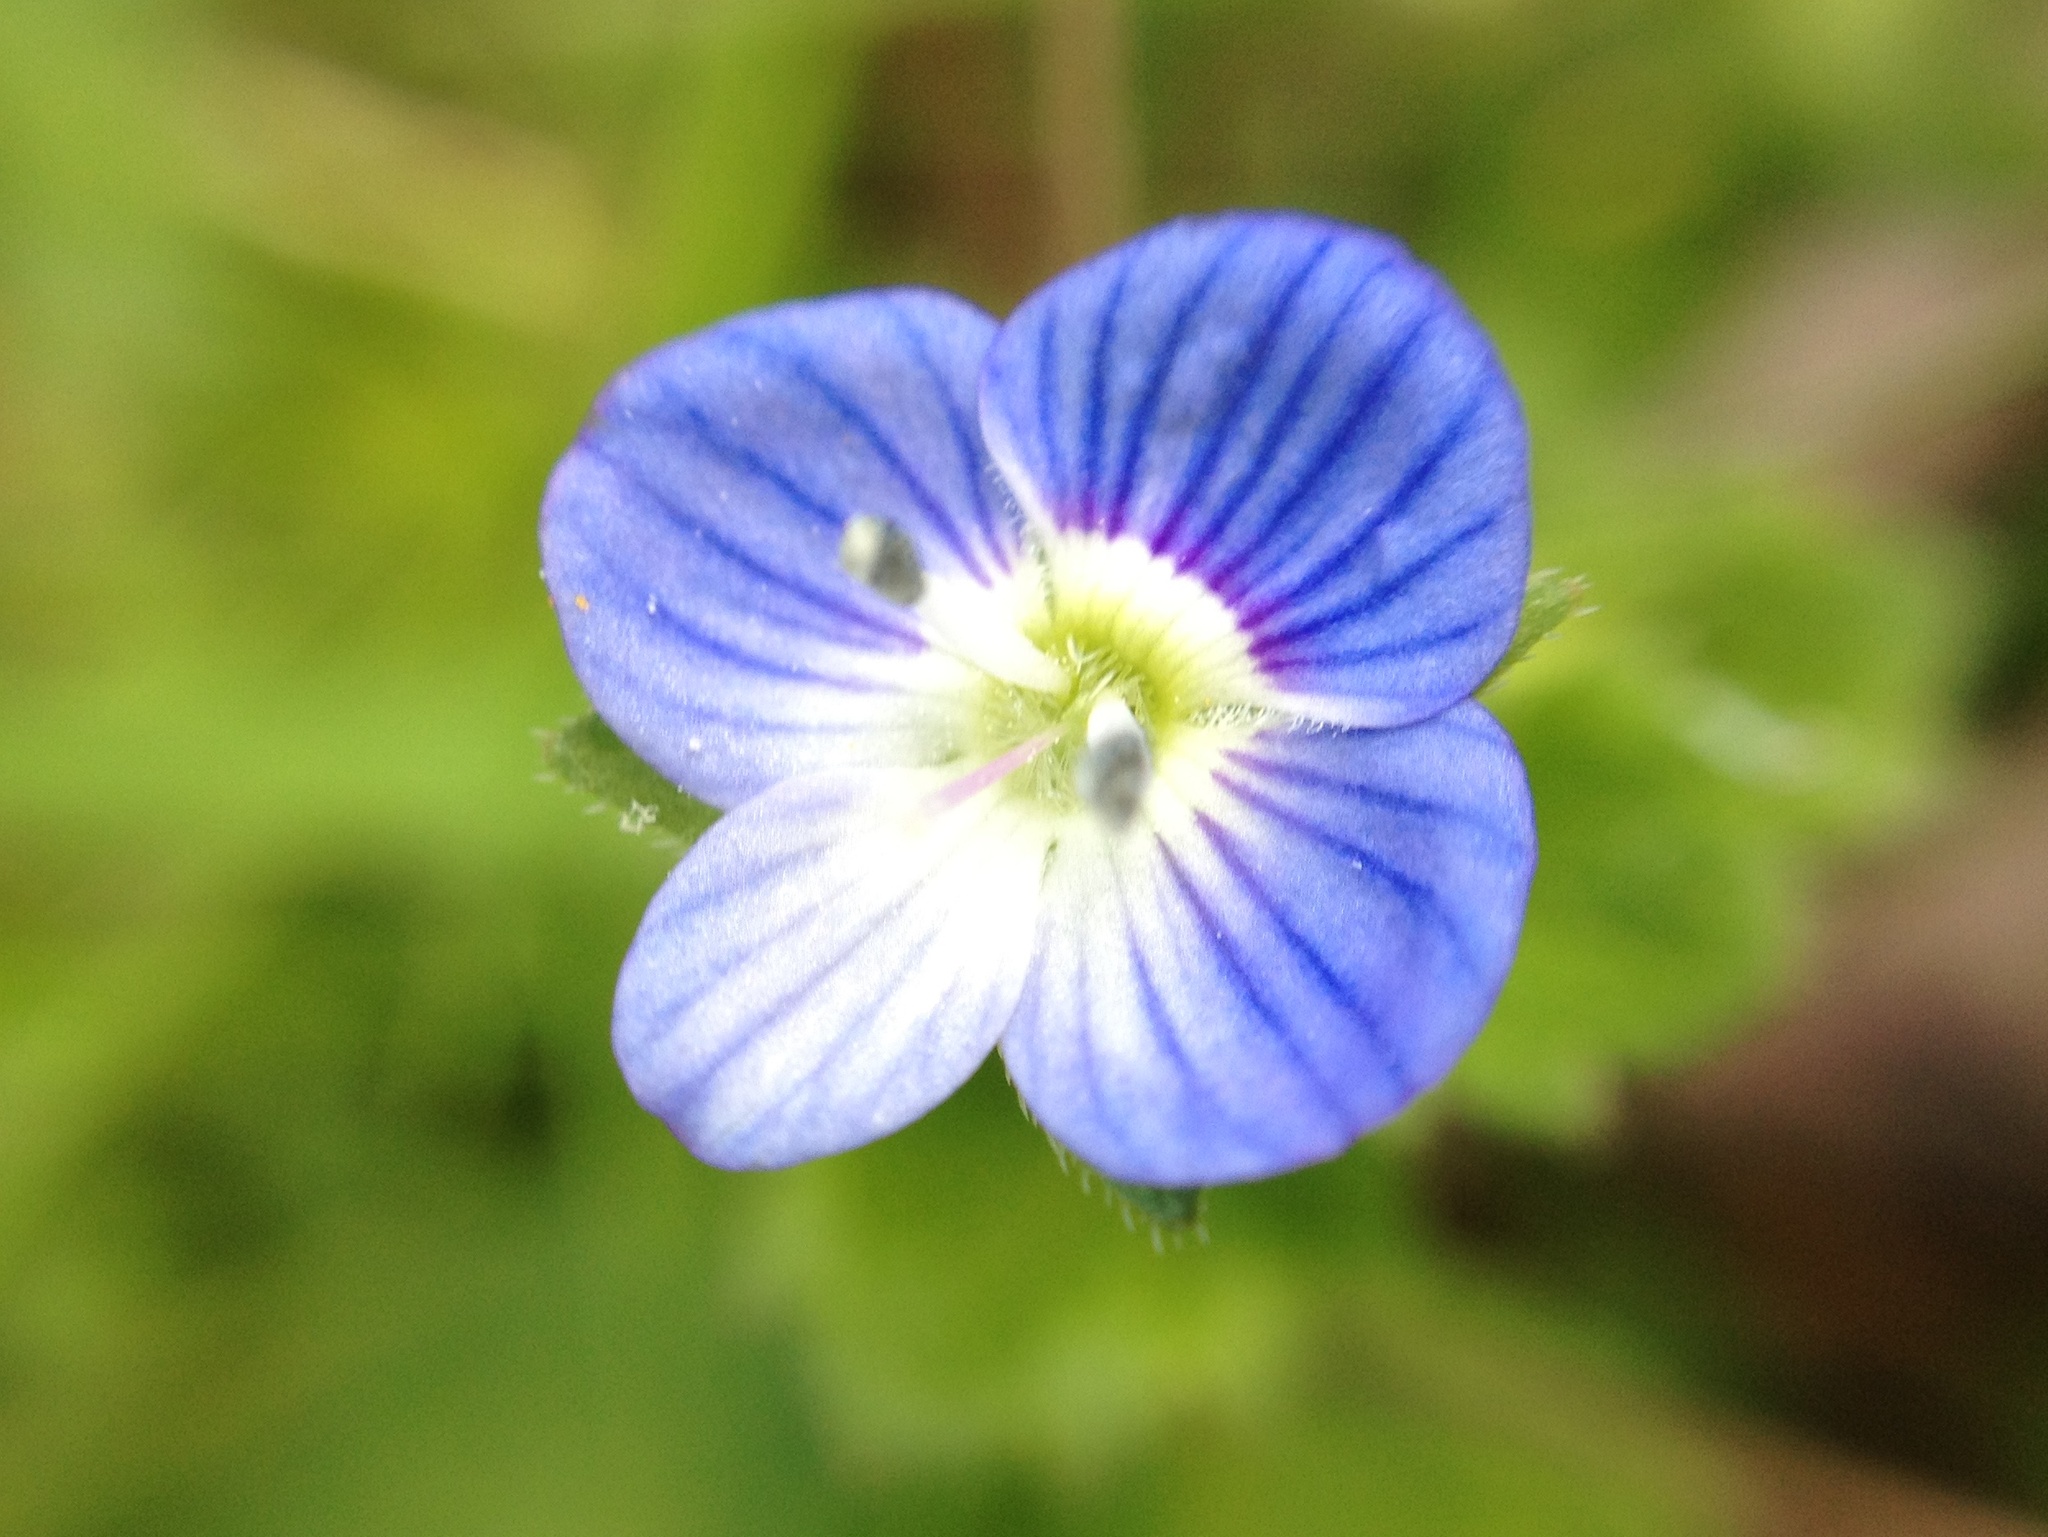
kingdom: Plantae
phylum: Tracheophyta
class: Magnoliopsida
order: Lamiales
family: Plantaginaceae
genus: Veronica
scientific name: Veronica persica
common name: Common field-speedwell
